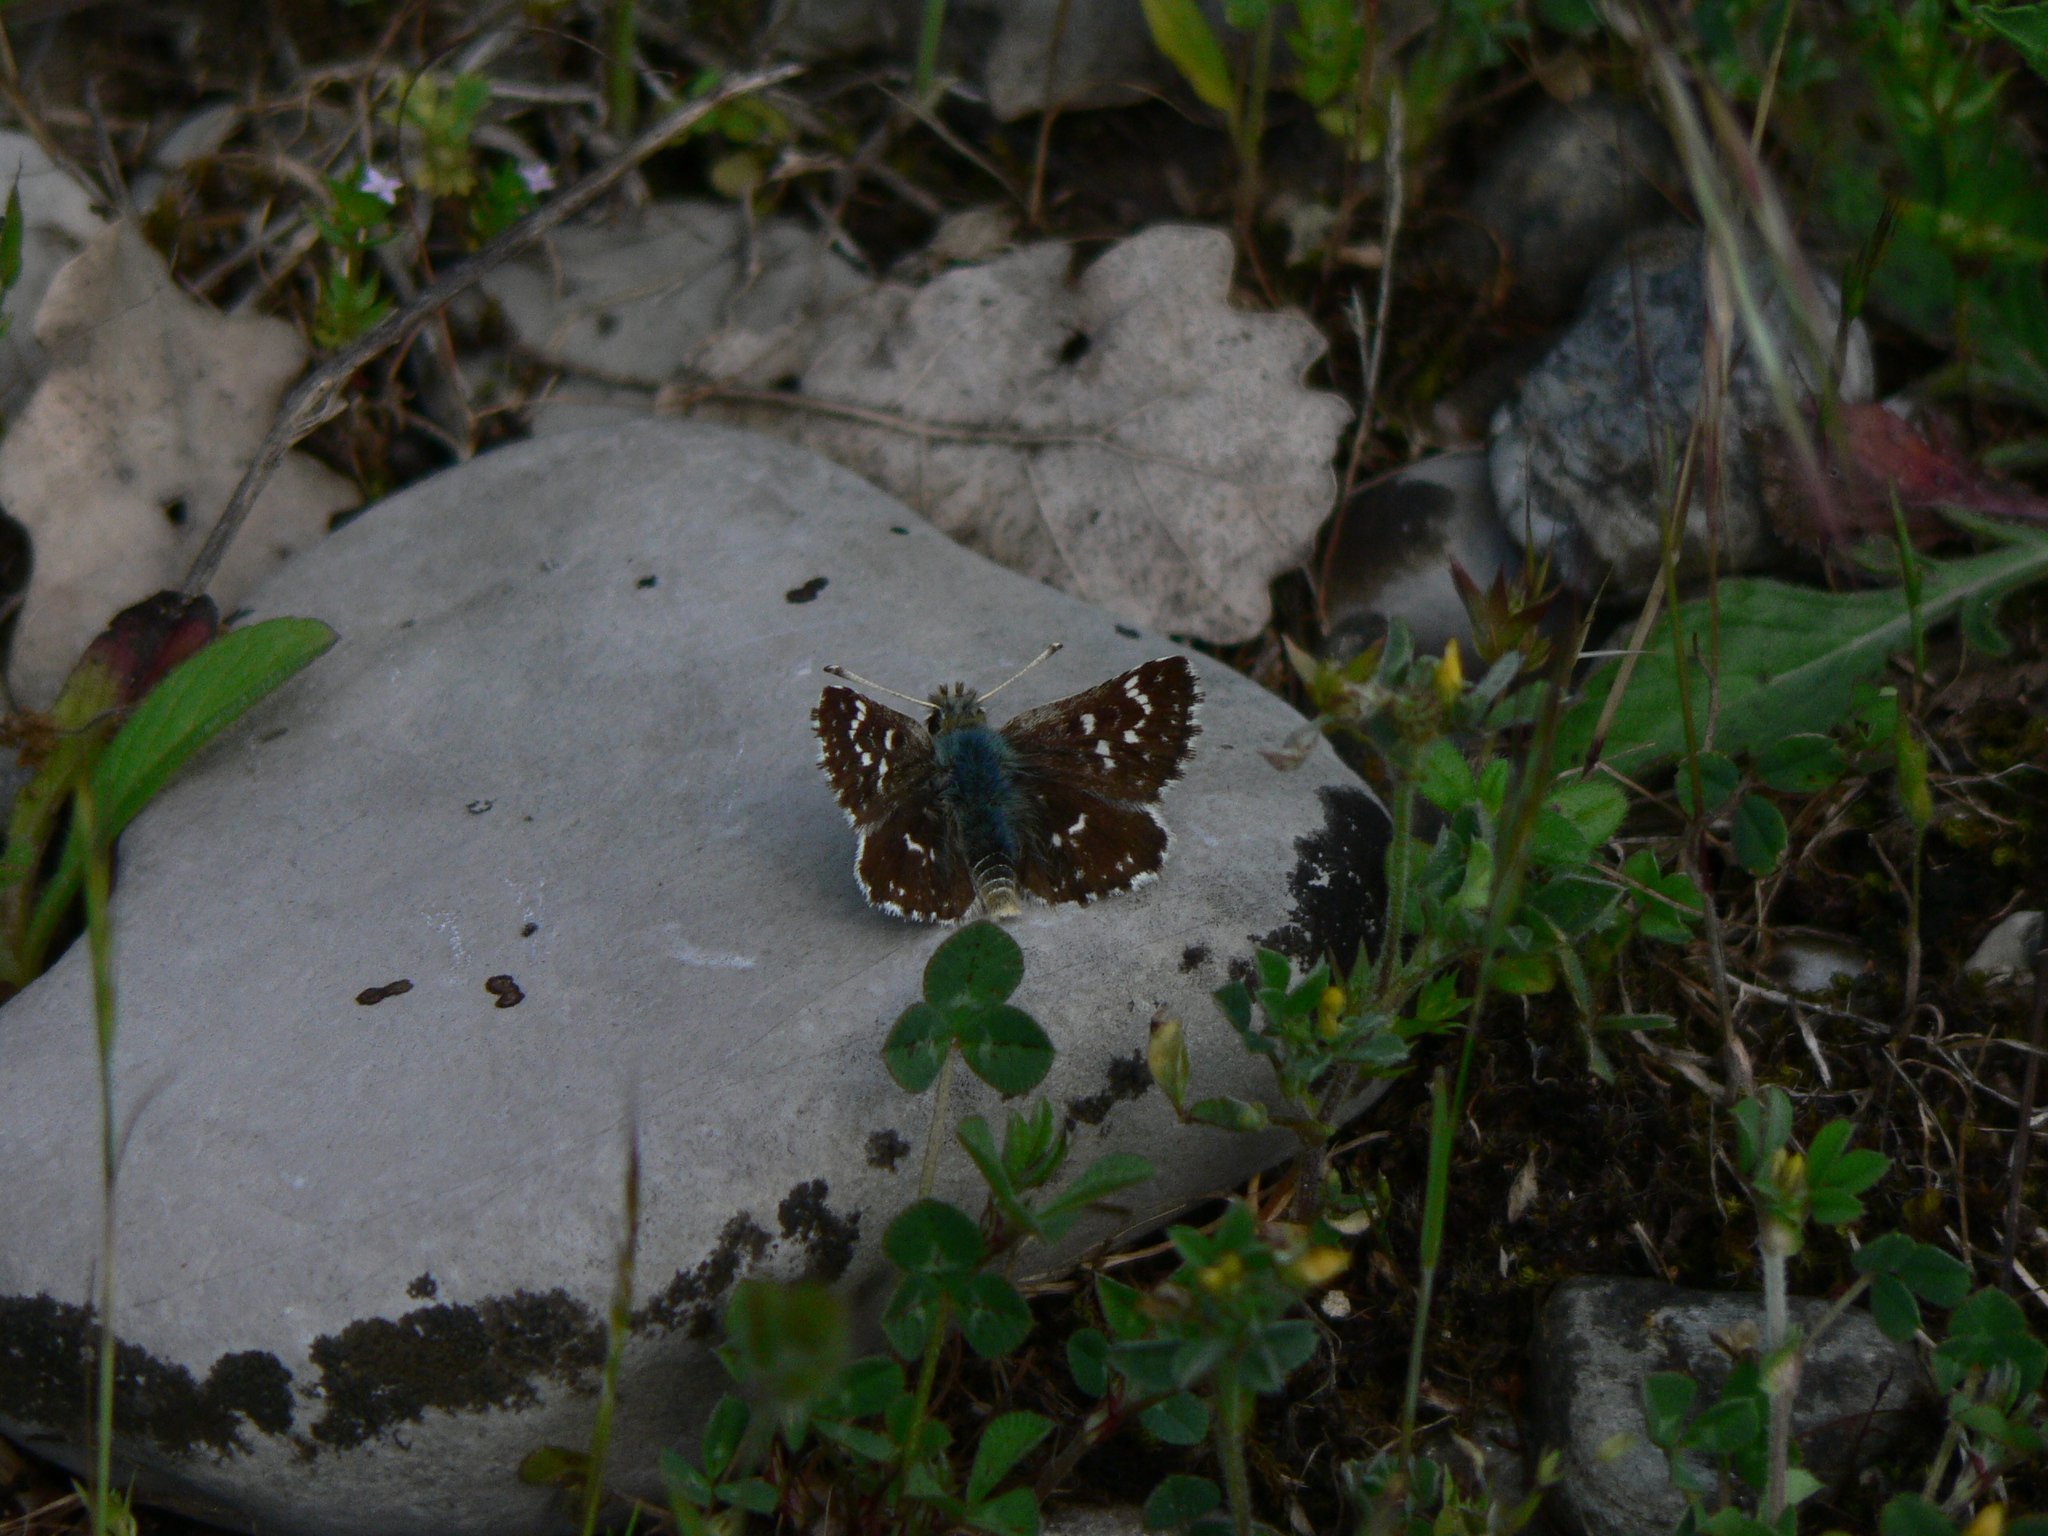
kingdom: Animalia
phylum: Arthropoda
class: Insecta
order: Lepidoptera
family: Hesperiidae
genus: Spialia
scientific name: Spialia sertorius
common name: Red underwing skipper
